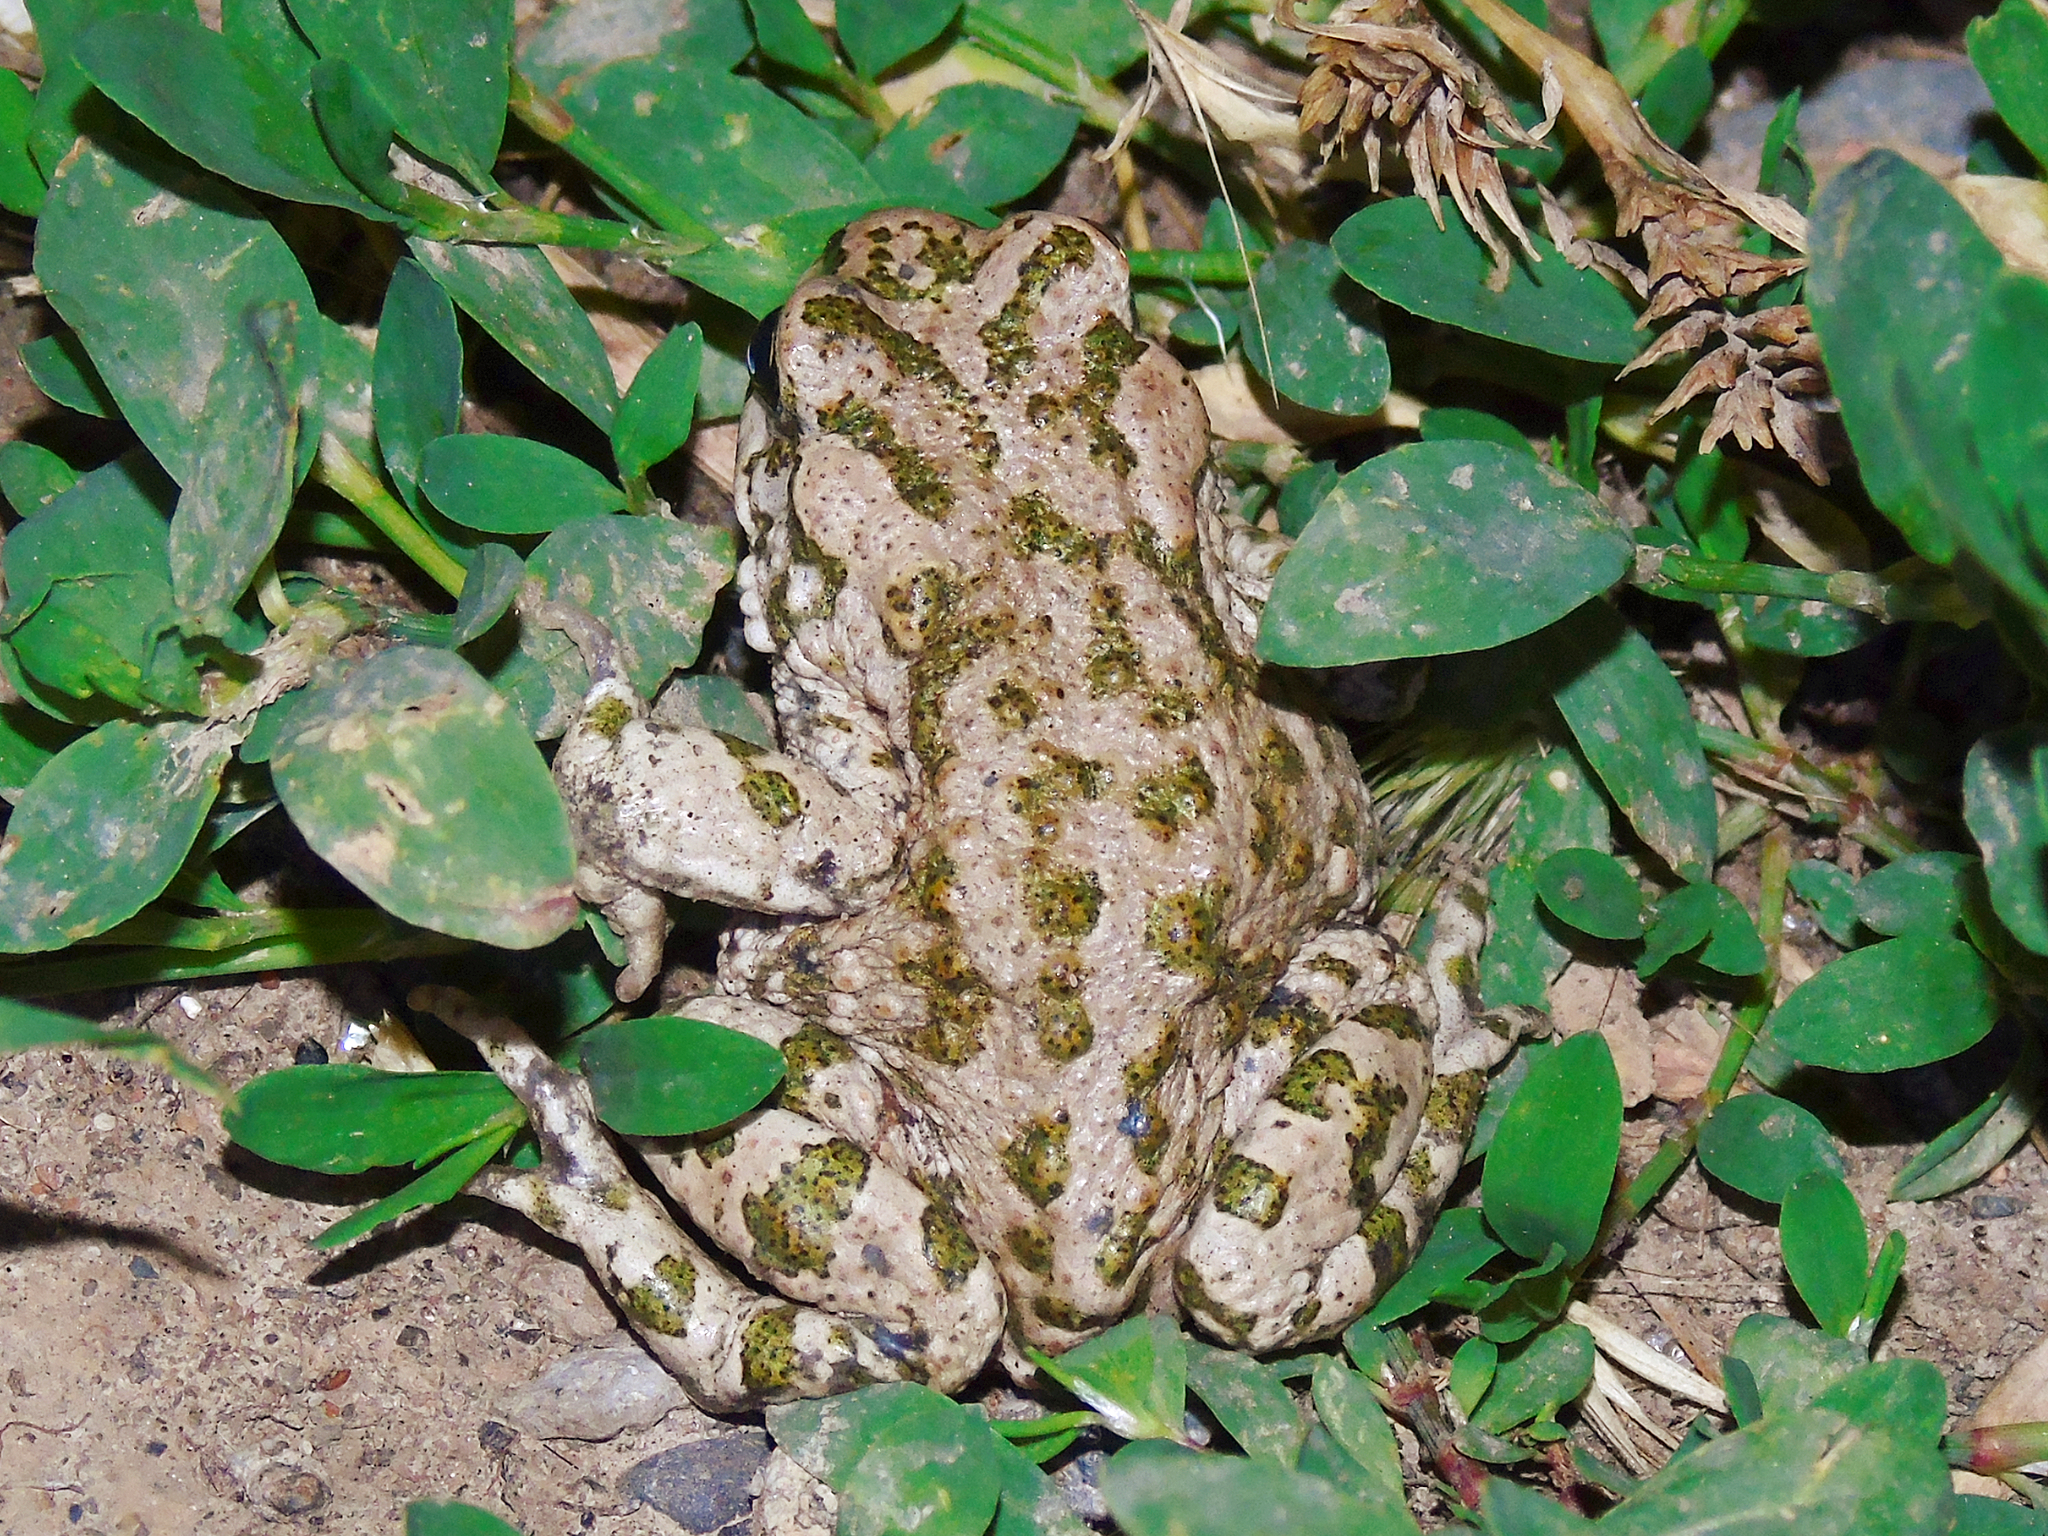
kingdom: Animalia
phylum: Chordata
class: Amphibia
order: Anura
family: Bufonidae
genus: Bufotes
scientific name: Bufotes pewzowi
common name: Xinjiang toad
